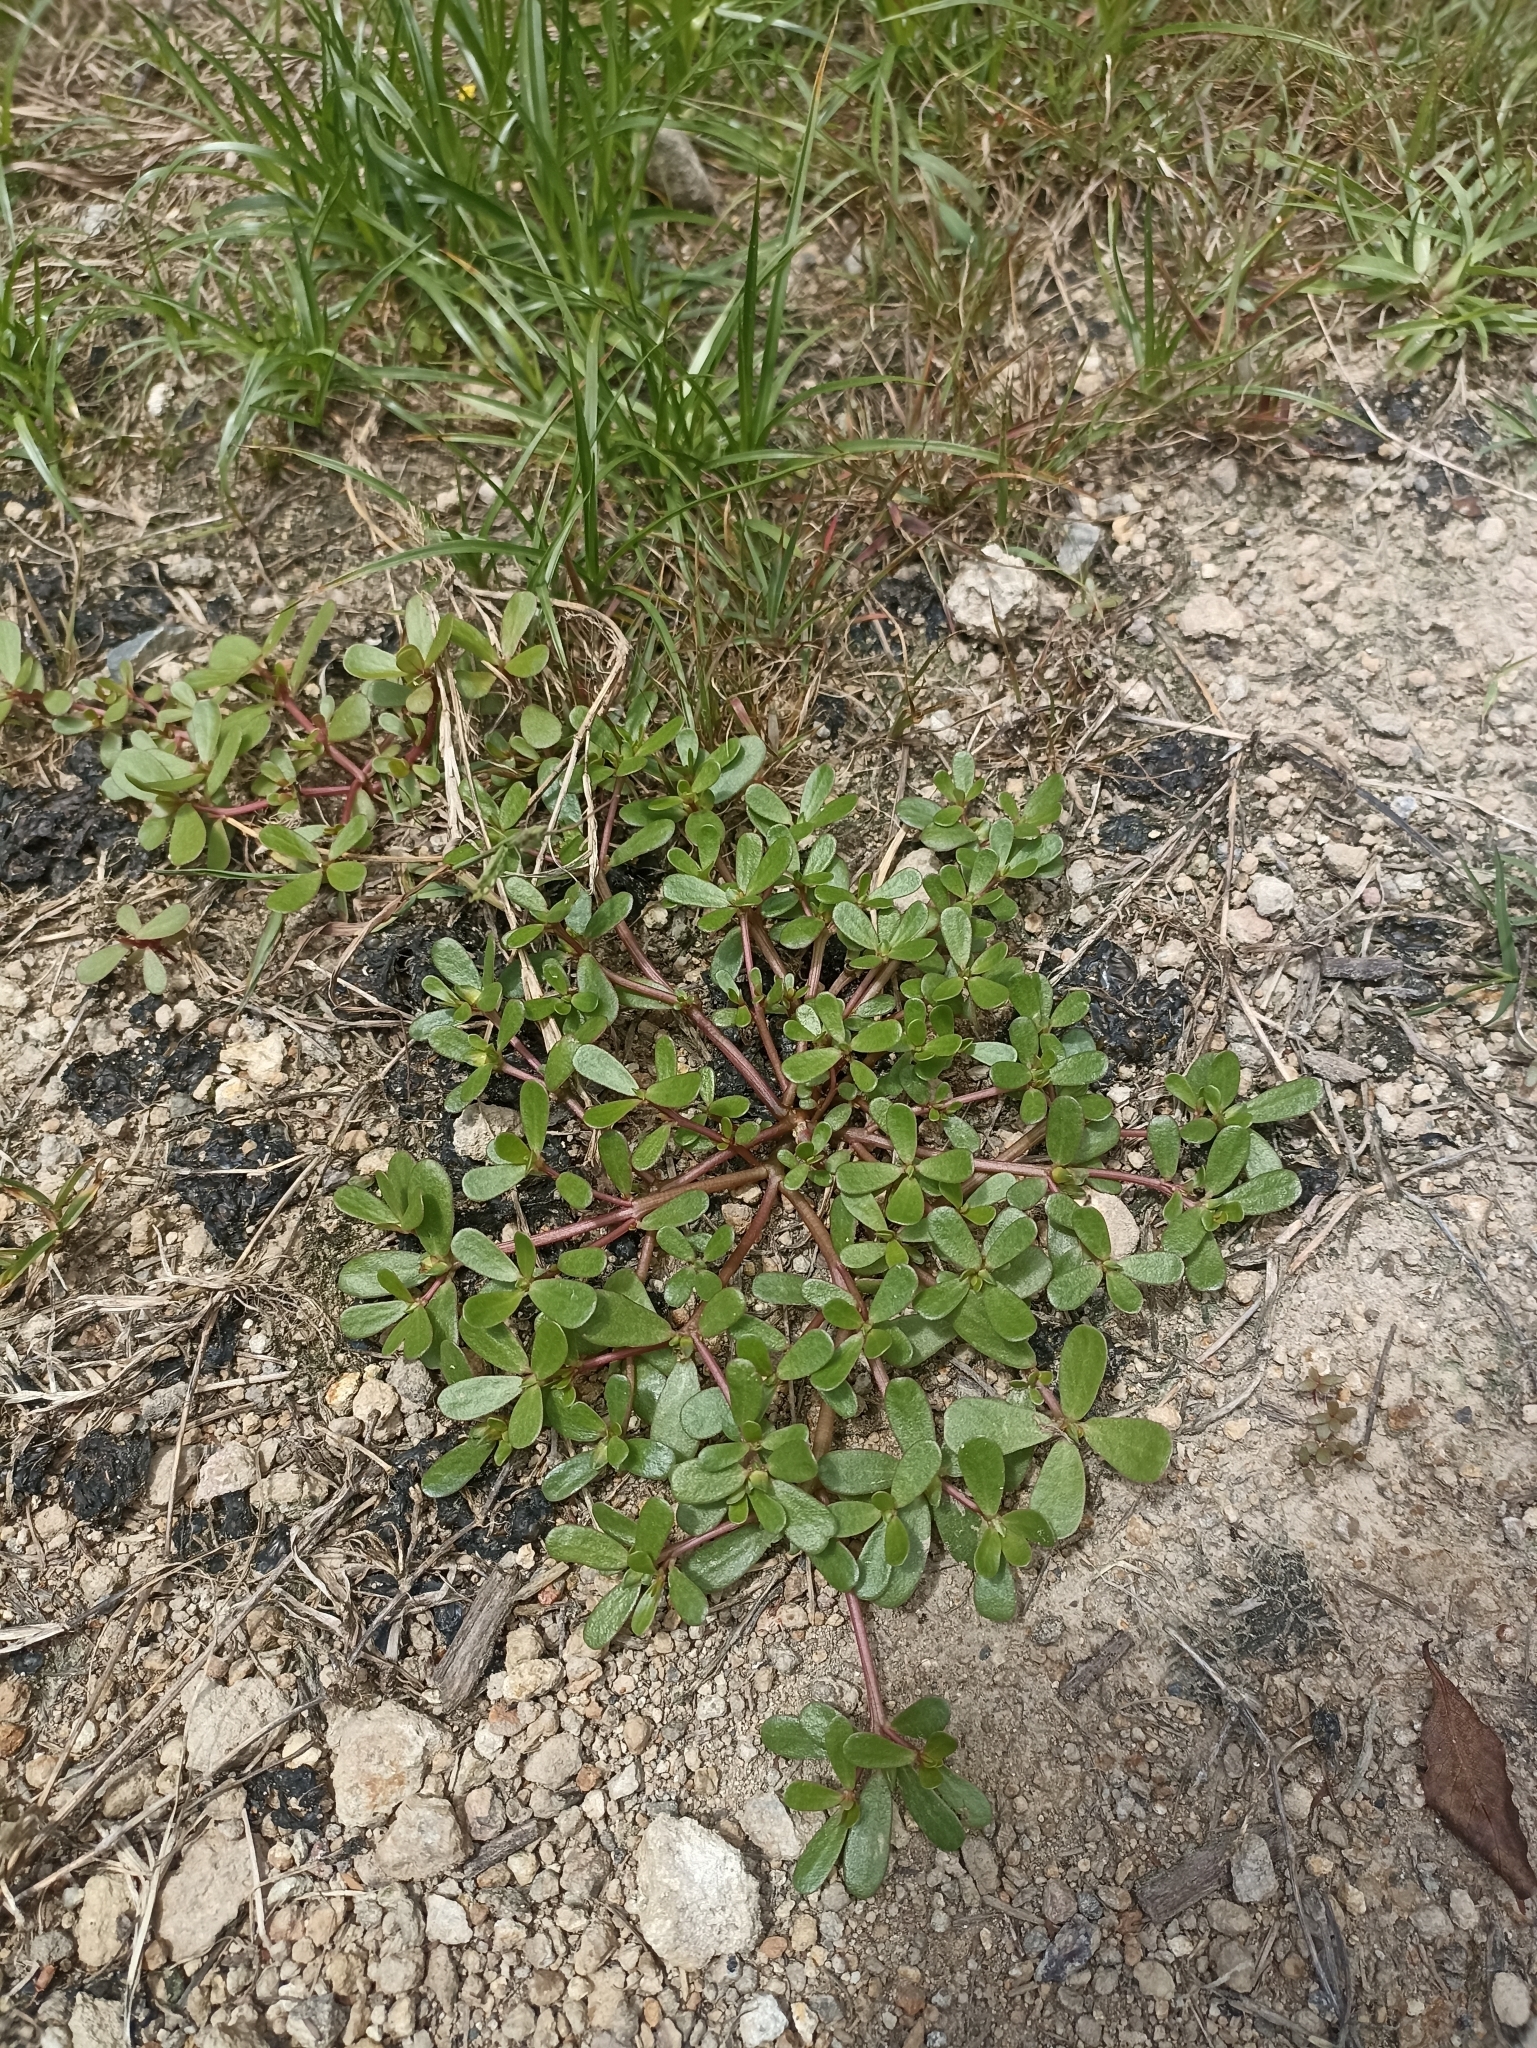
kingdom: Plantae
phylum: Tracheophyta
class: Magnoliopsida
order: Caryophyllales
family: Portulacaceae
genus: Portulaca
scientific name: Portulaca oleracea
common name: Common purslane
